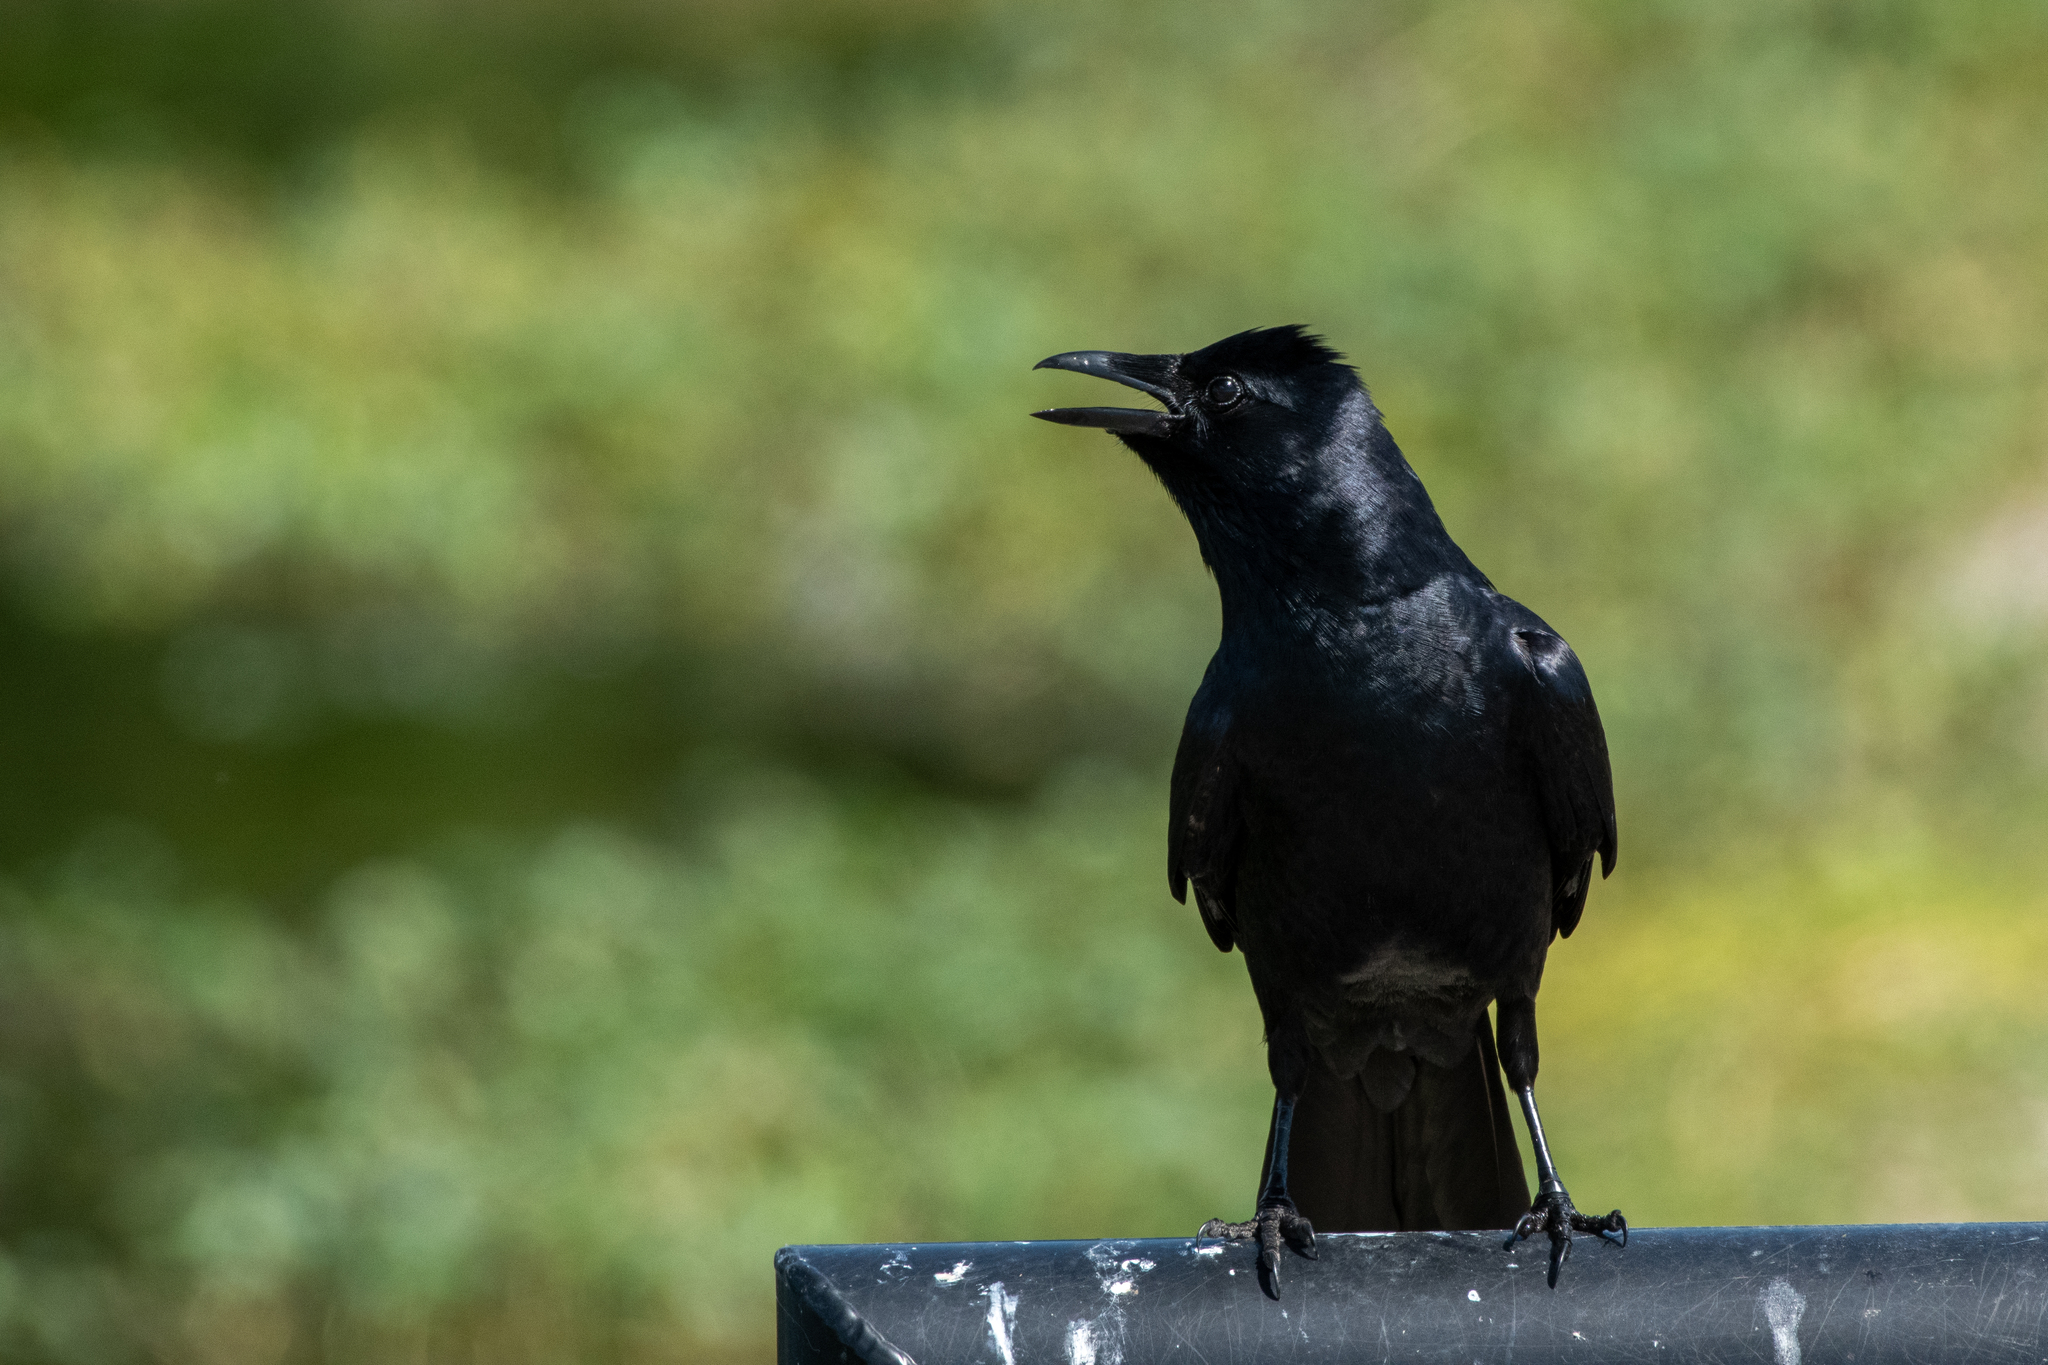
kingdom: Animalia
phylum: Chordata
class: Aves
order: Passeriformes
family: Corvidae
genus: Corvus
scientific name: Corvus ossifragus
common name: Fish crow
